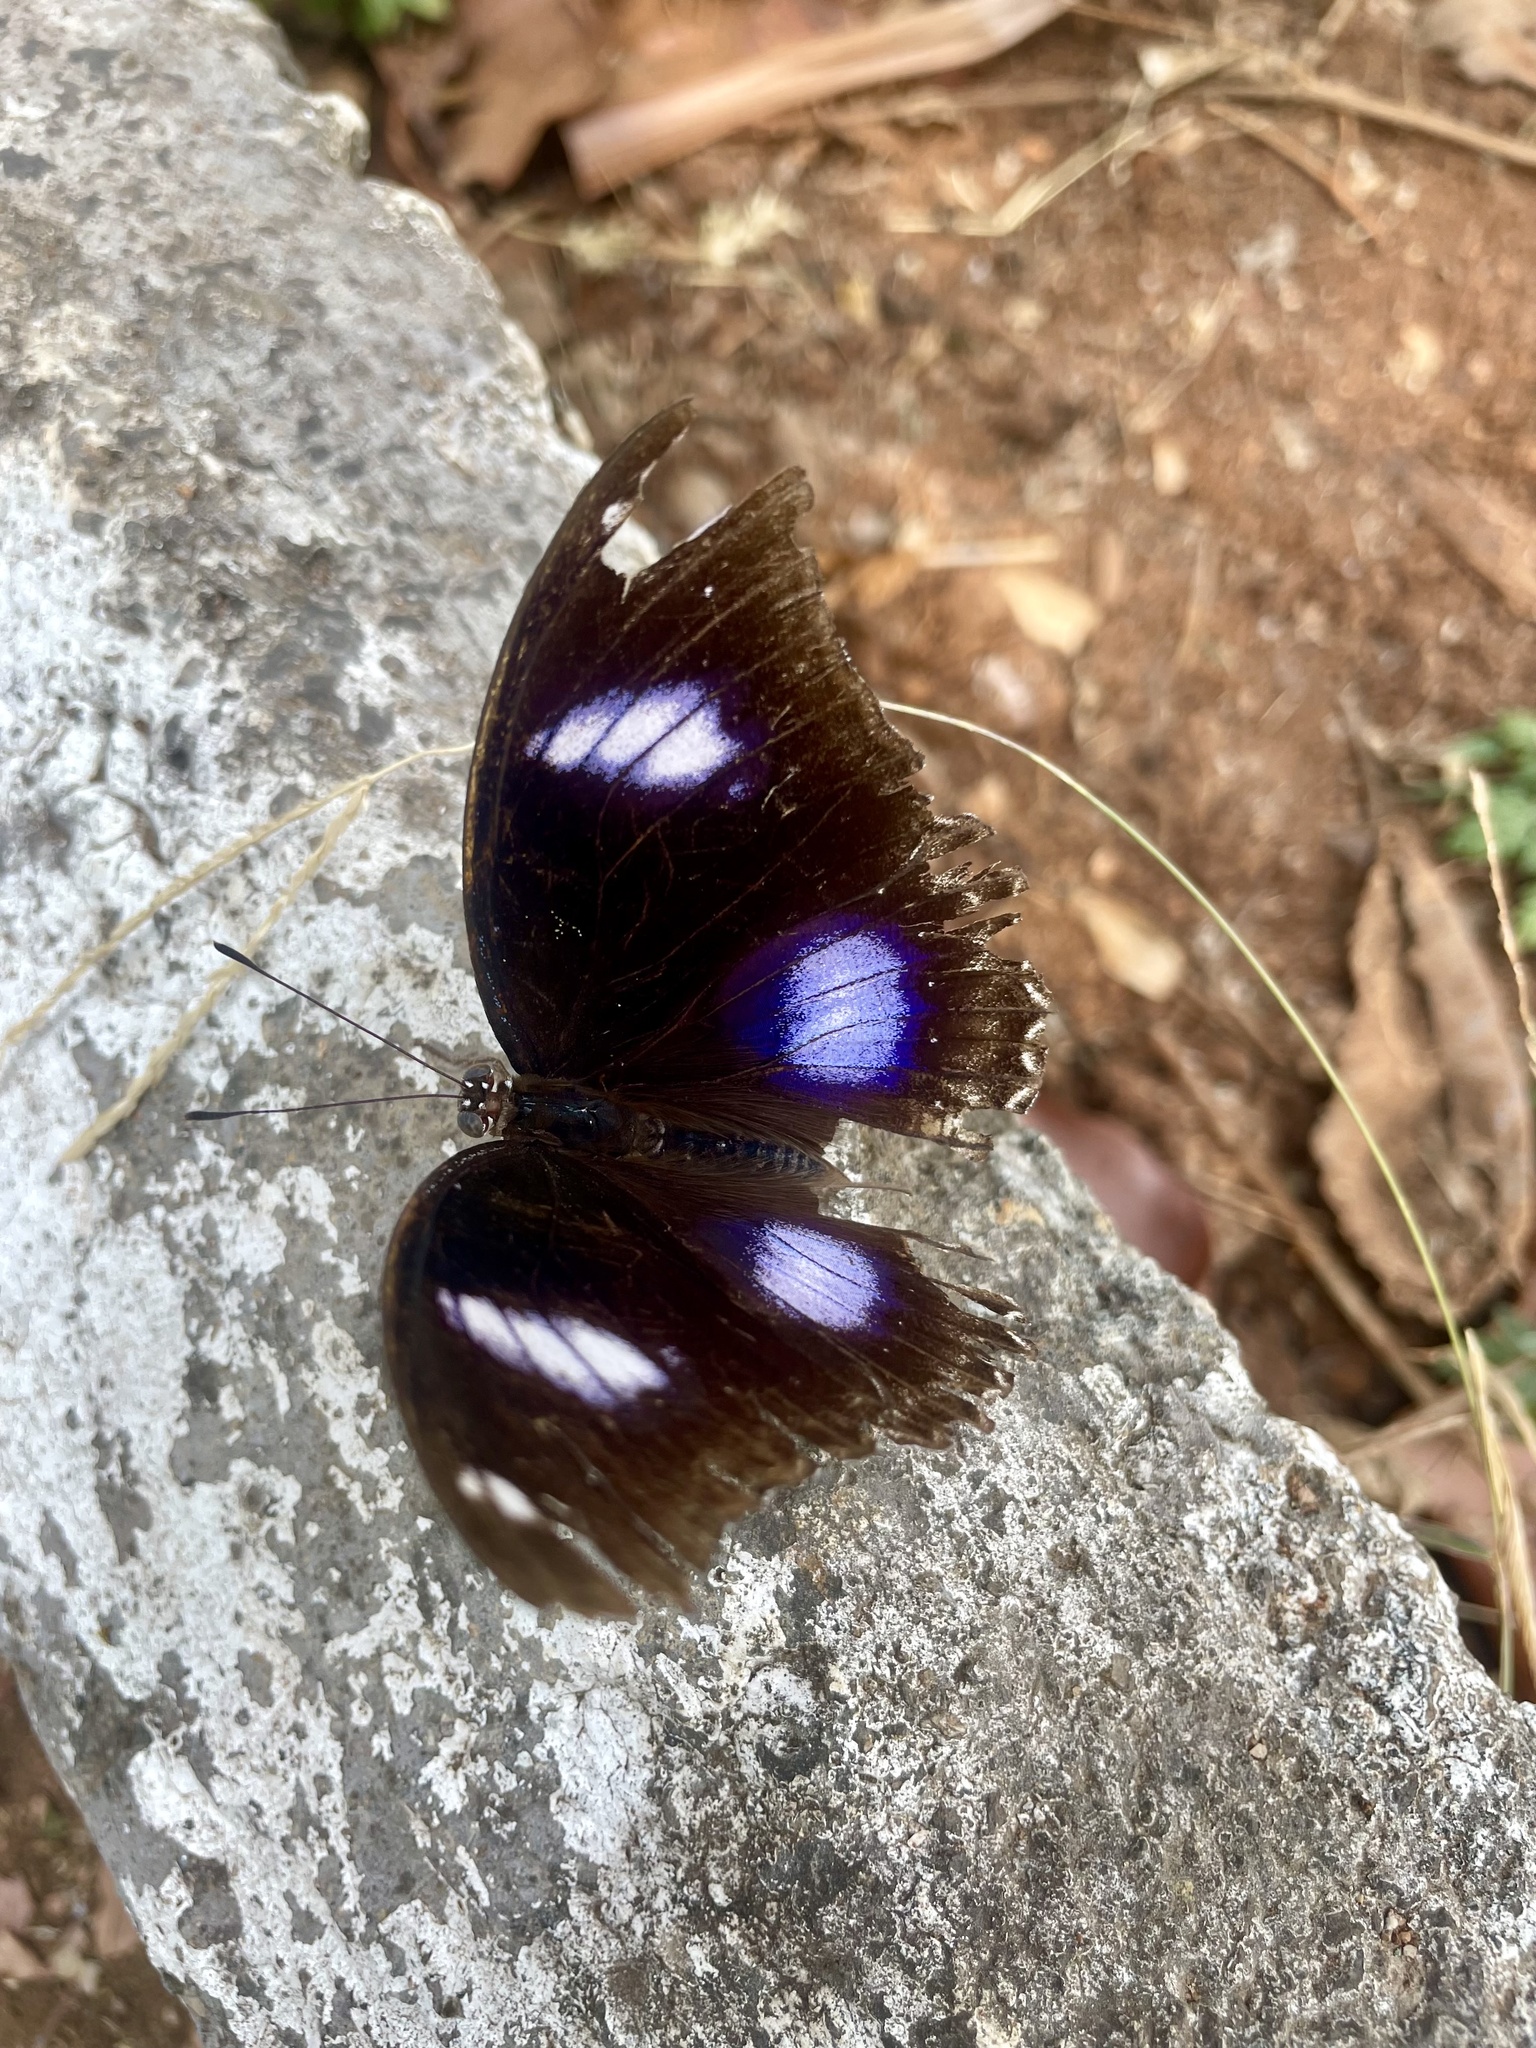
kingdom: Animalia
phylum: Arthropoda
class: Insecta
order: Lepidoptera
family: Nymphalidae
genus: Hypolimnas
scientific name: Hypolimnas bolina
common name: Great eggfly
